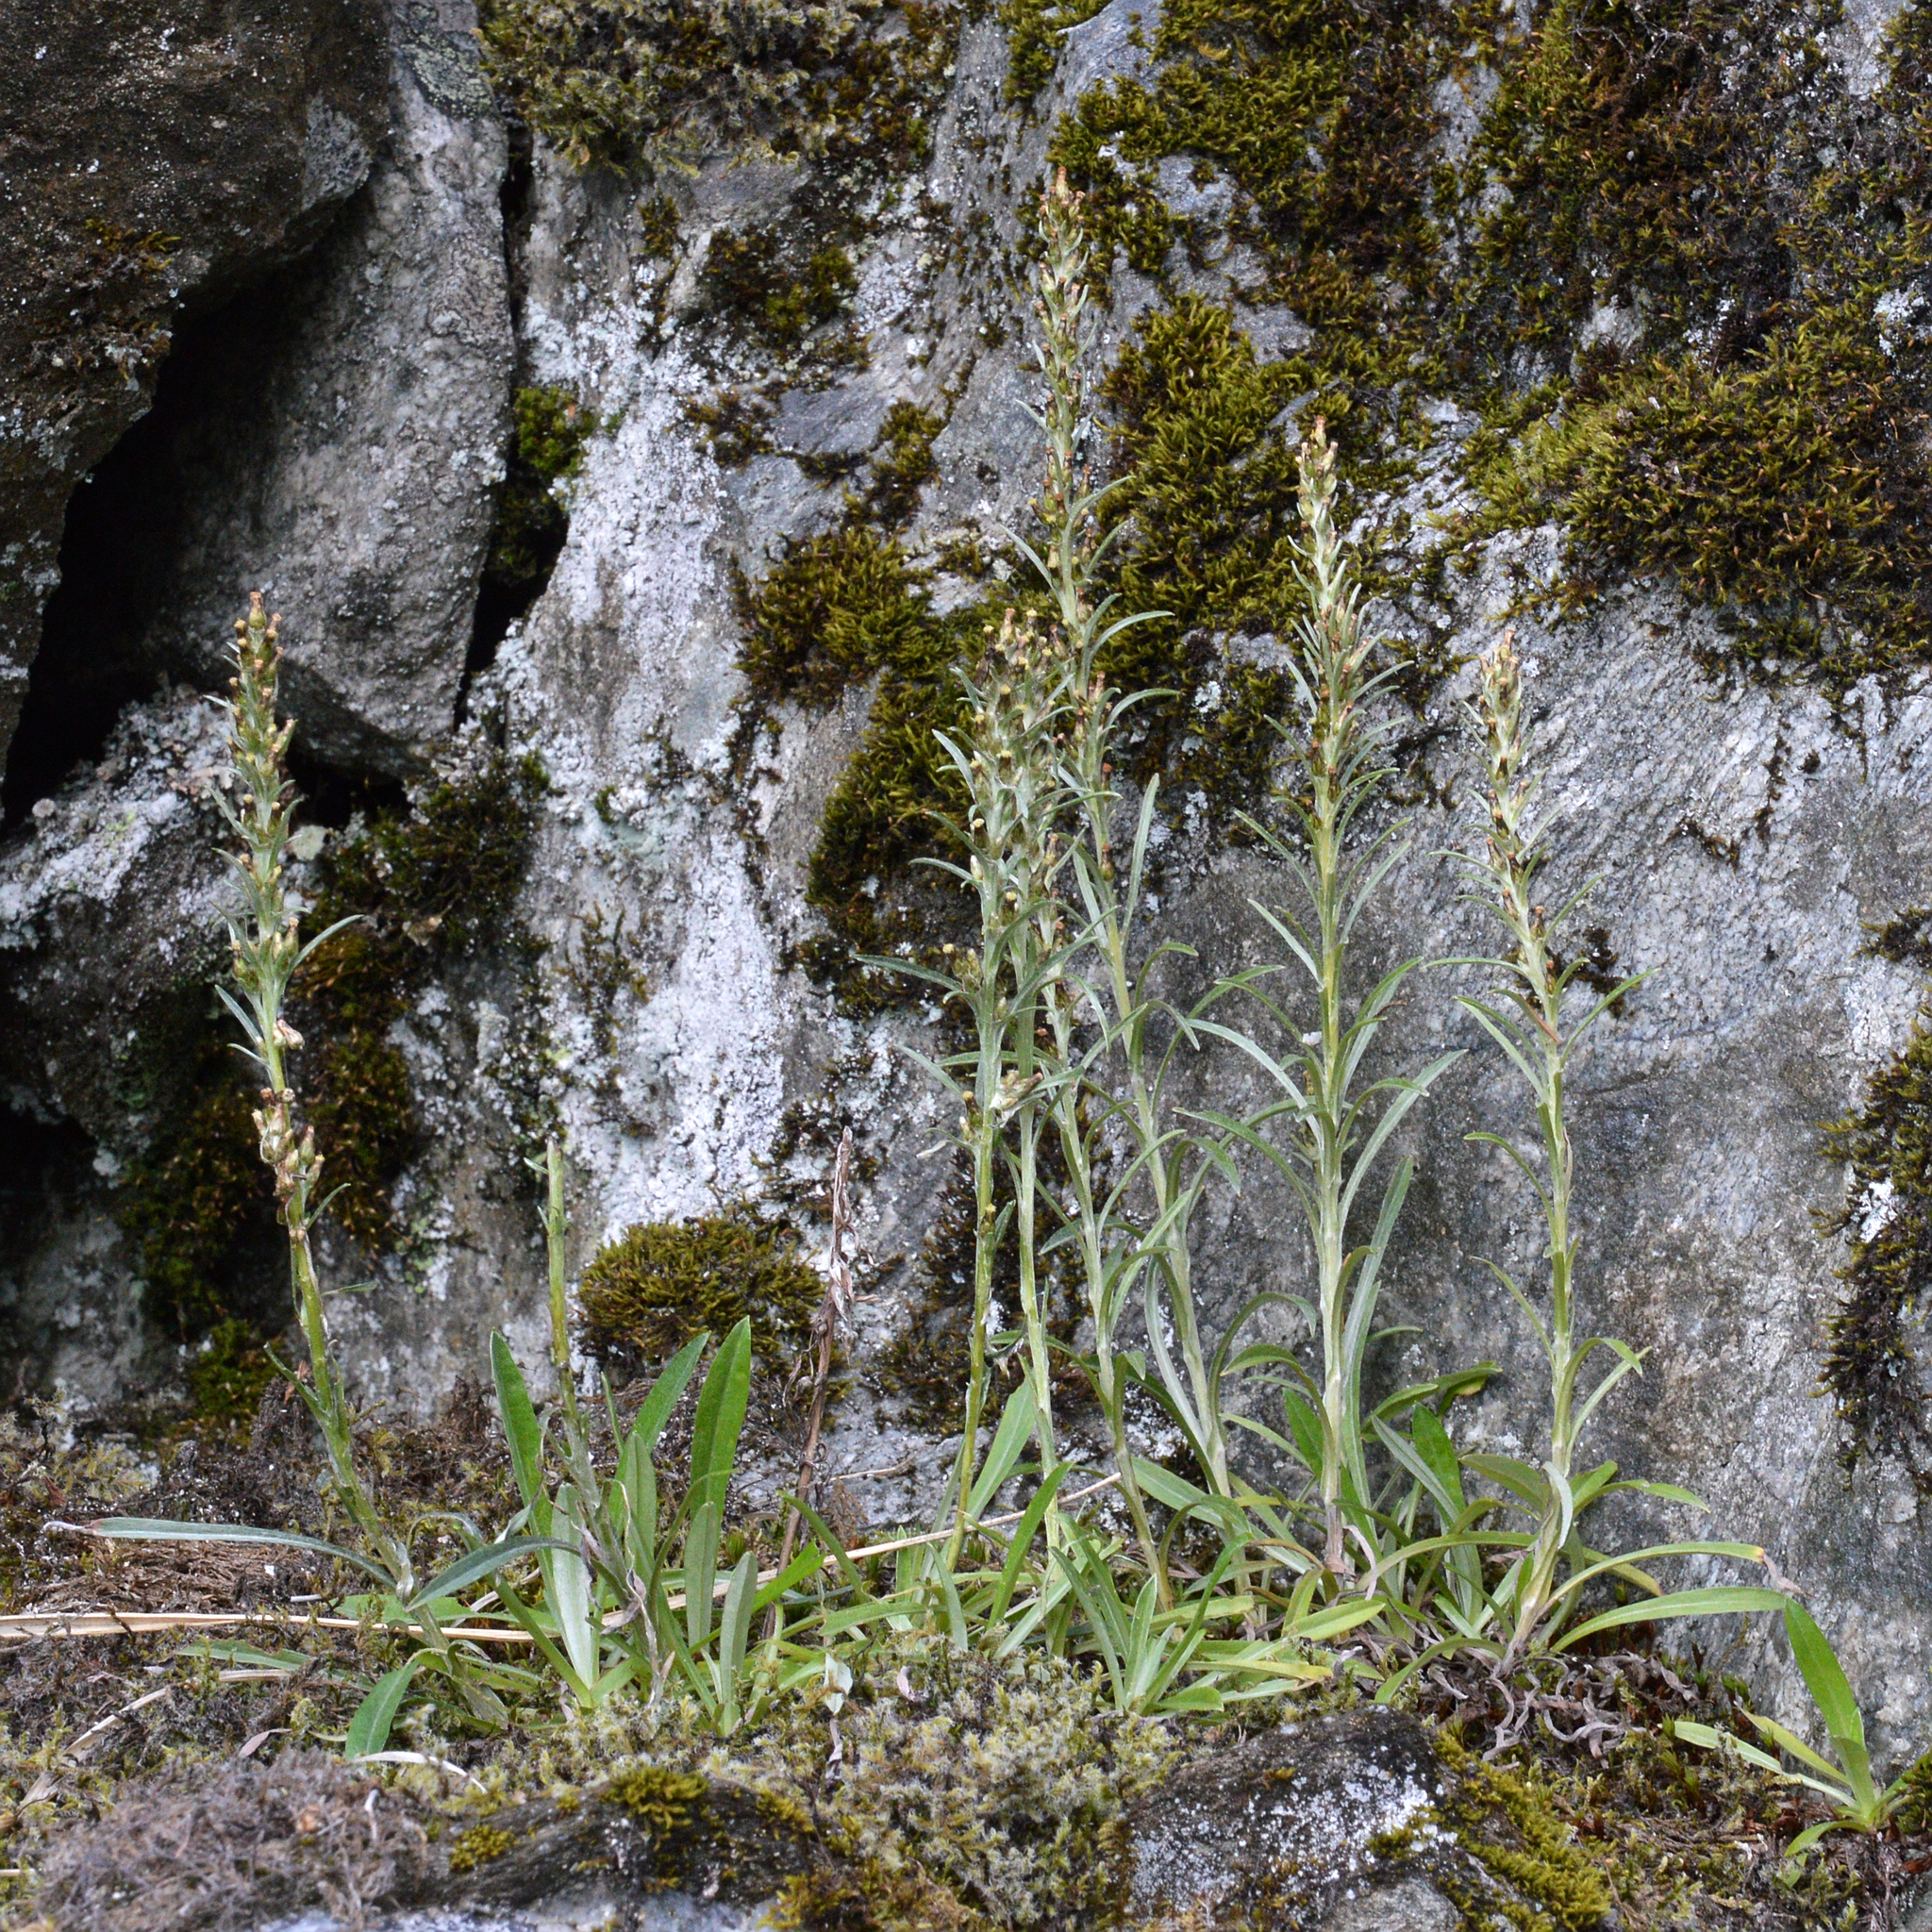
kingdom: Plantae
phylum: Tracheophyta
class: Magnoliopsida
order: Asterales
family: Asteraceae
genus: Omalotheca
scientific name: Omalotheca sylvatica
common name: Heath cudweed
